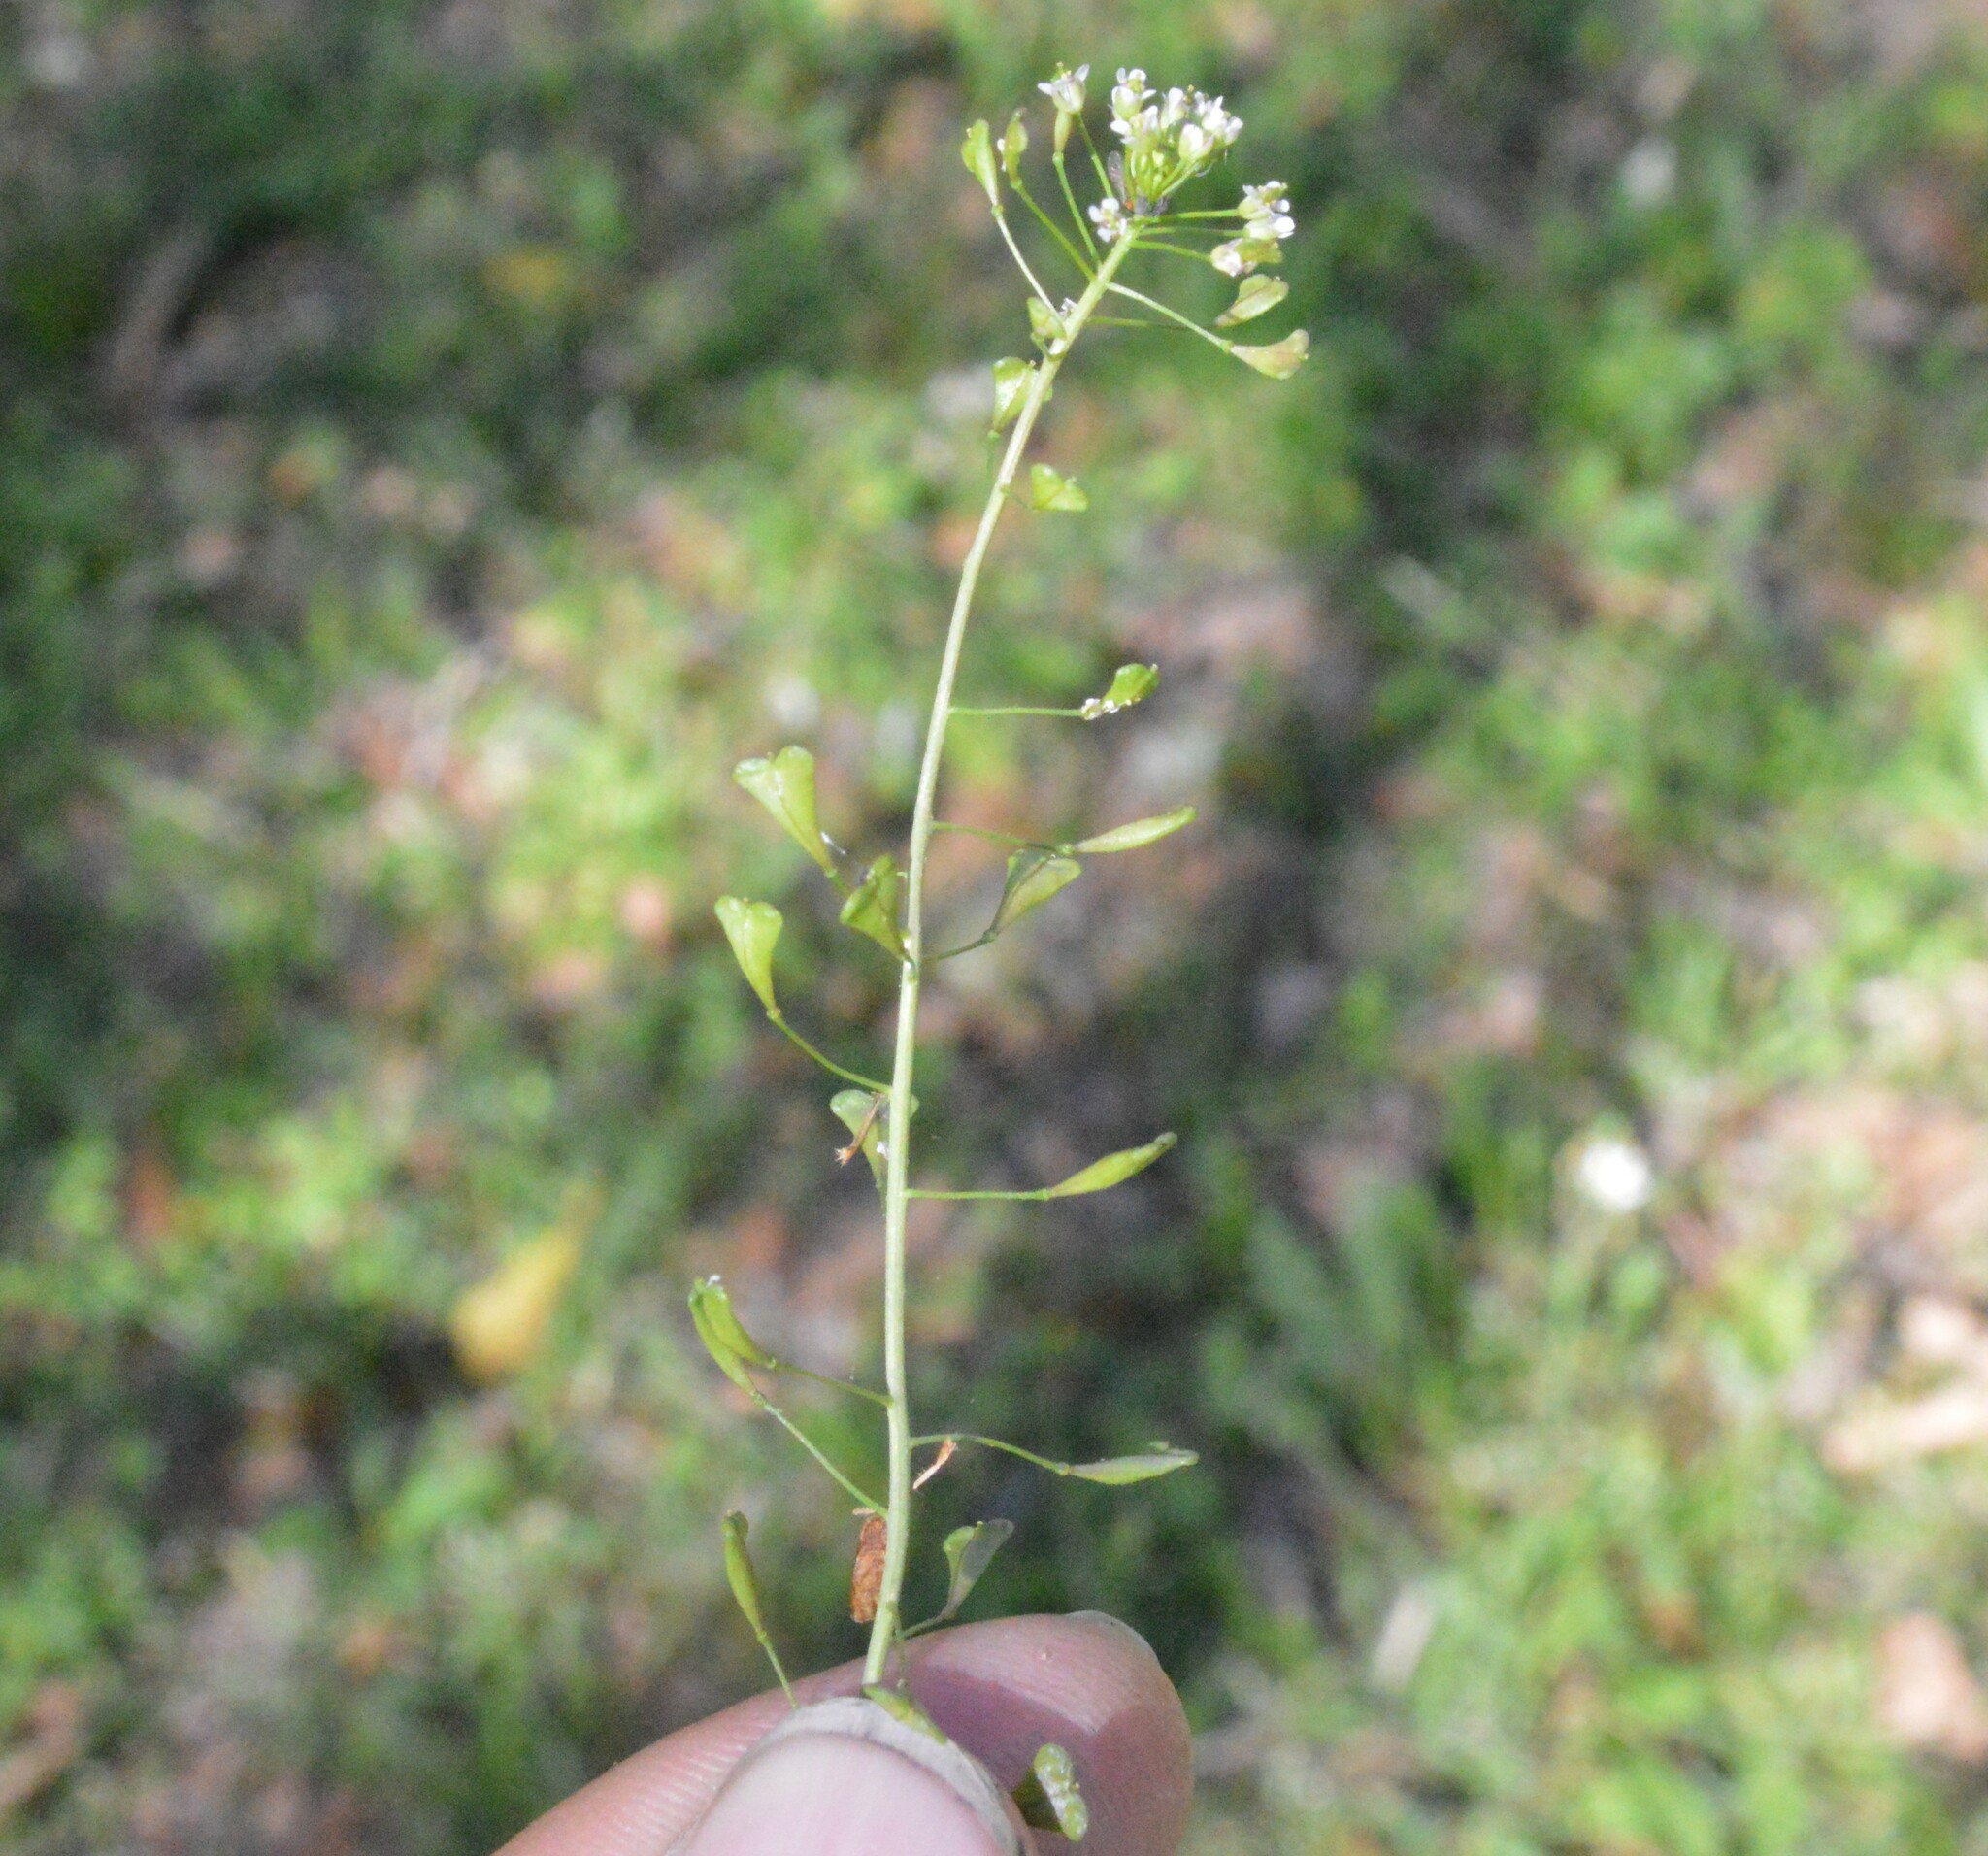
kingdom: Plantae
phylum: Tracheophyta
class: Magnoliopsida
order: Brassicales
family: Brassicaceae
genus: Capsella
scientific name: Capsella bursa-pastoris
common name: Shepherd's purse
